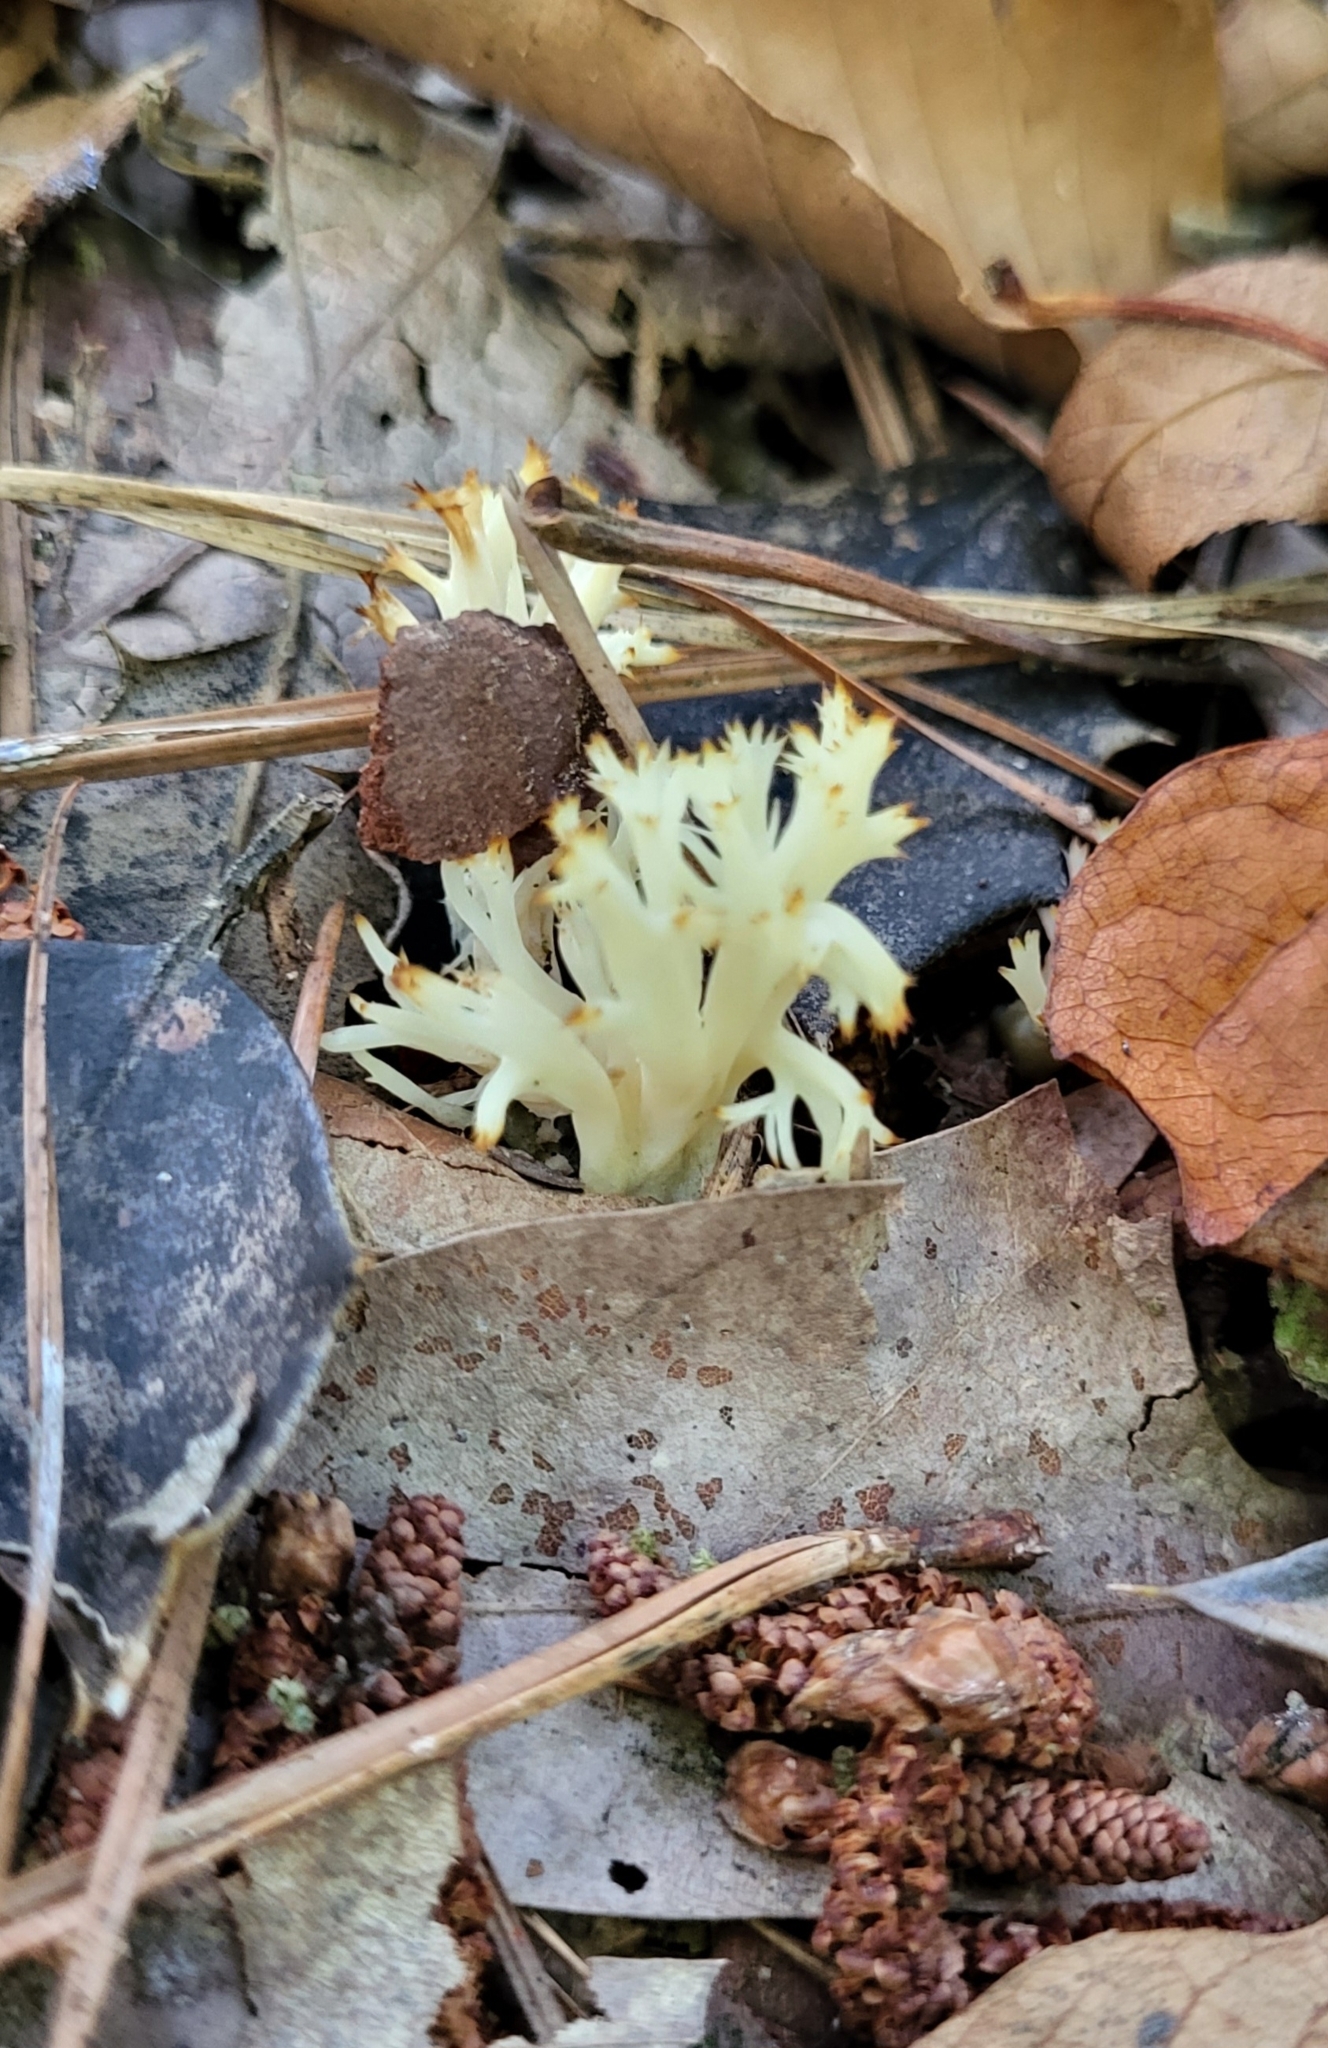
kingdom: Fungi
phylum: Basidiomycota
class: Agaricomycetes
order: Cantharellales
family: Hydnaceae
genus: Clavulina
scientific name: Clavulina coralloides
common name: Crested coral
